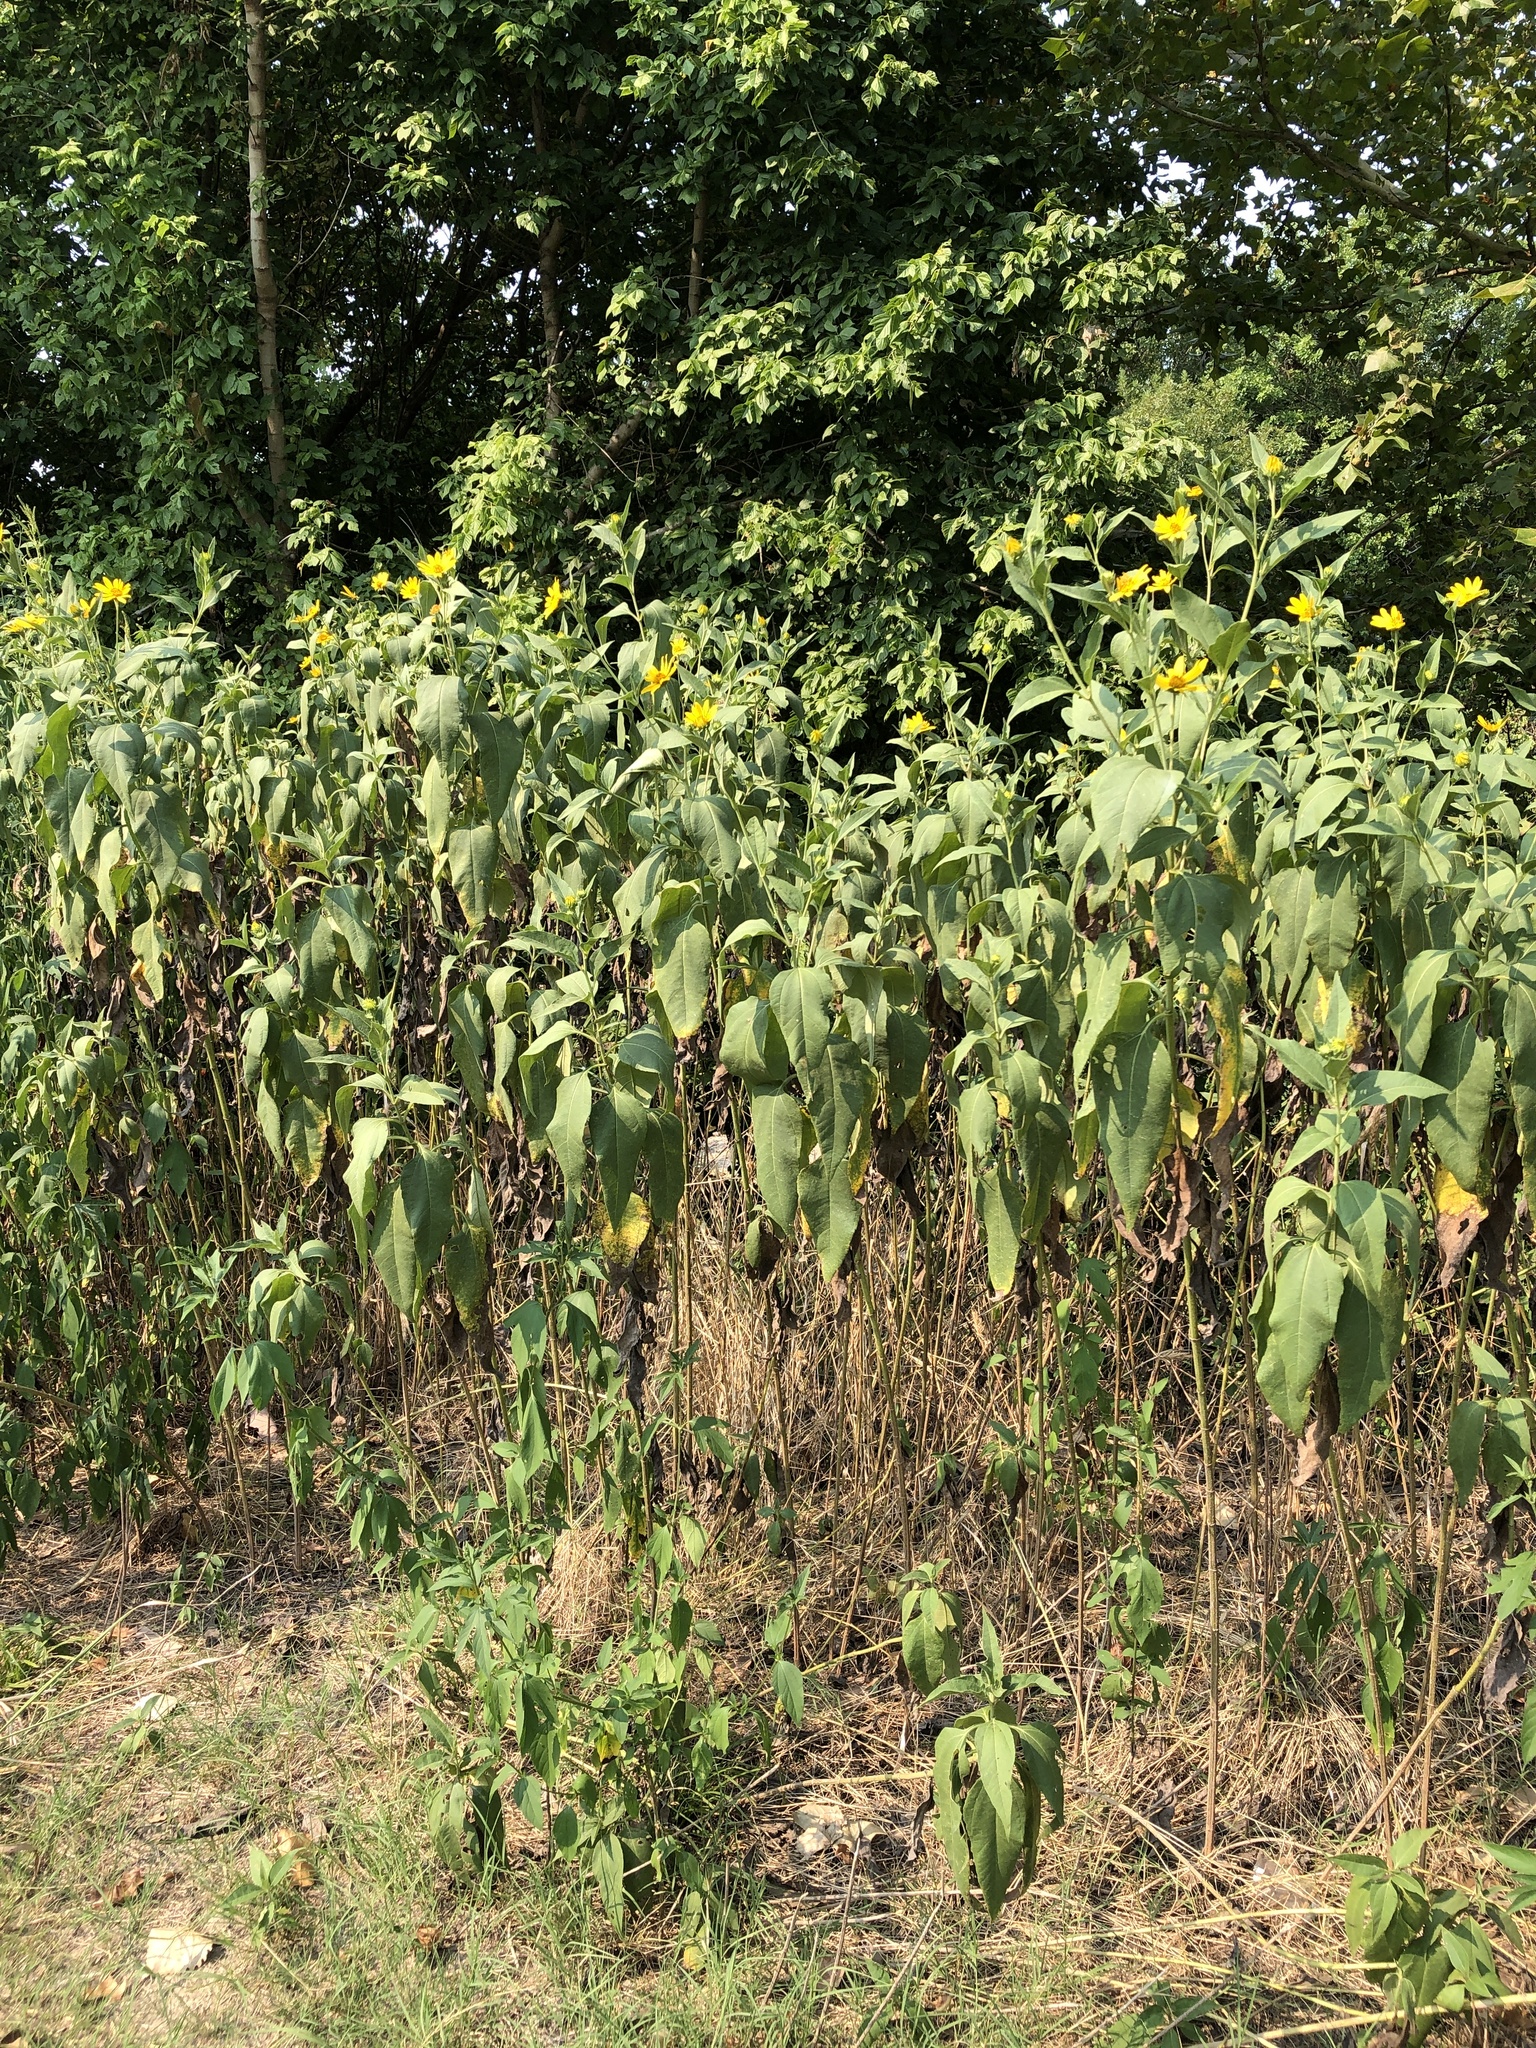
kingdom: Plantae
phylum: Tracheophyta
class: Magnoliopsida
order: Asterales
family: Asteraceae
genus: Helianthus
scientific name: Helianthus hirsutus
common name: Hairy sunflower
